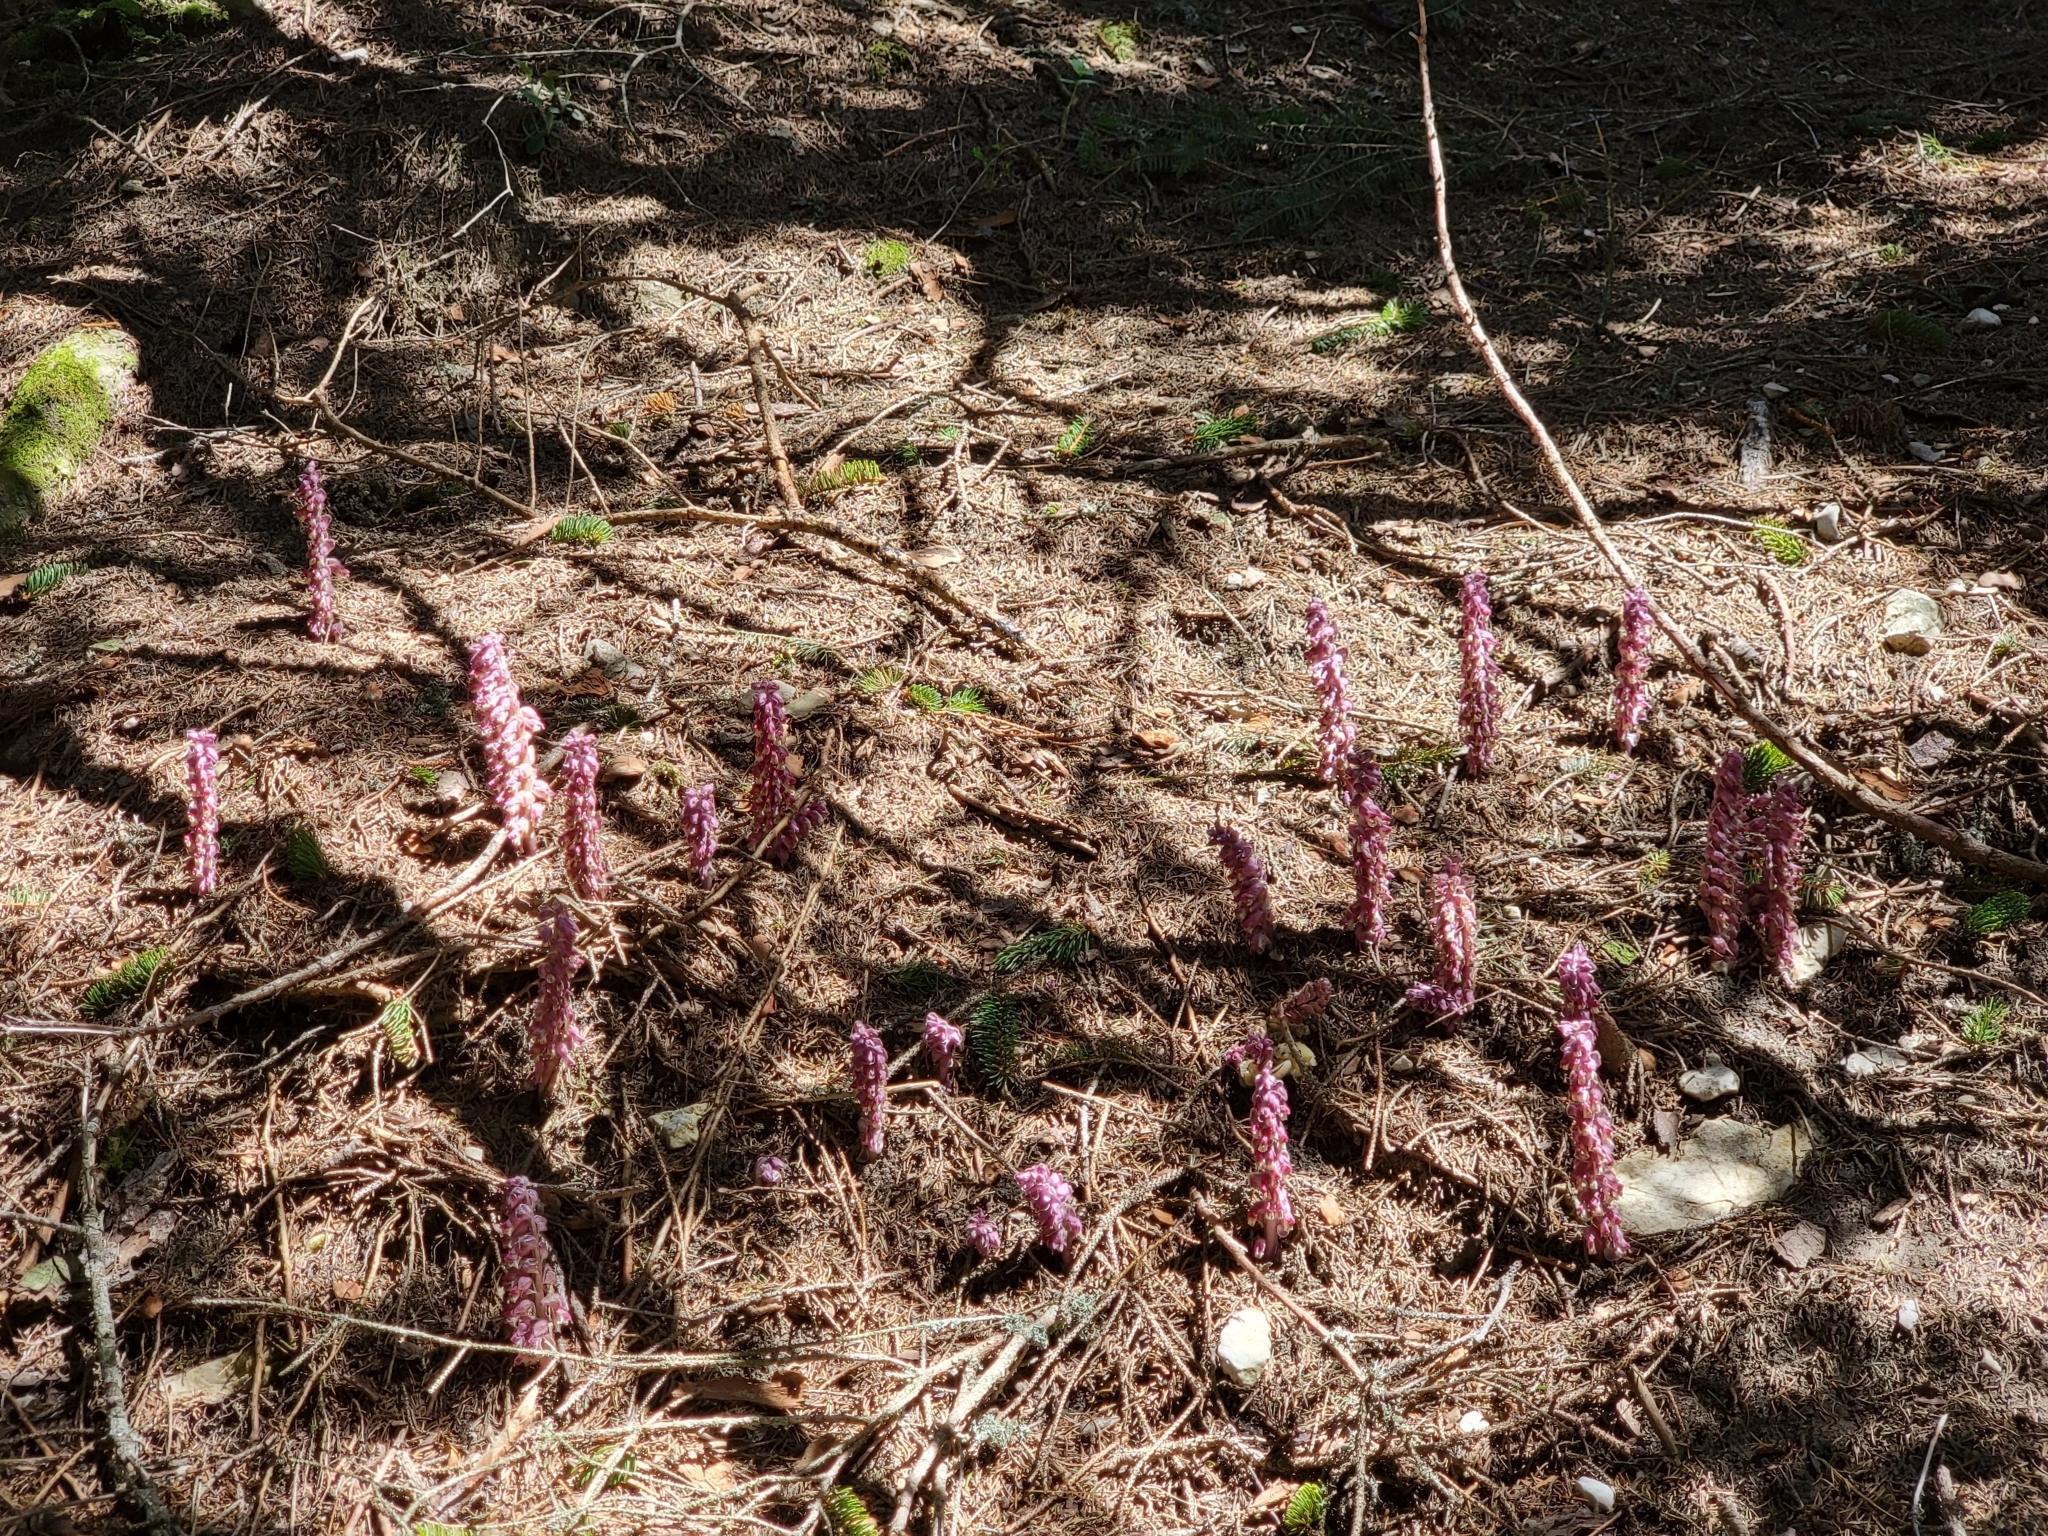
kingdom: Plantae
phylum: Tracheophyta
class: Magnoliopsida
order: Lamiales
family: Orobanchaceae
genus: Lathraea
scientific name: Lathraea squamaria
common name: Toothwort
